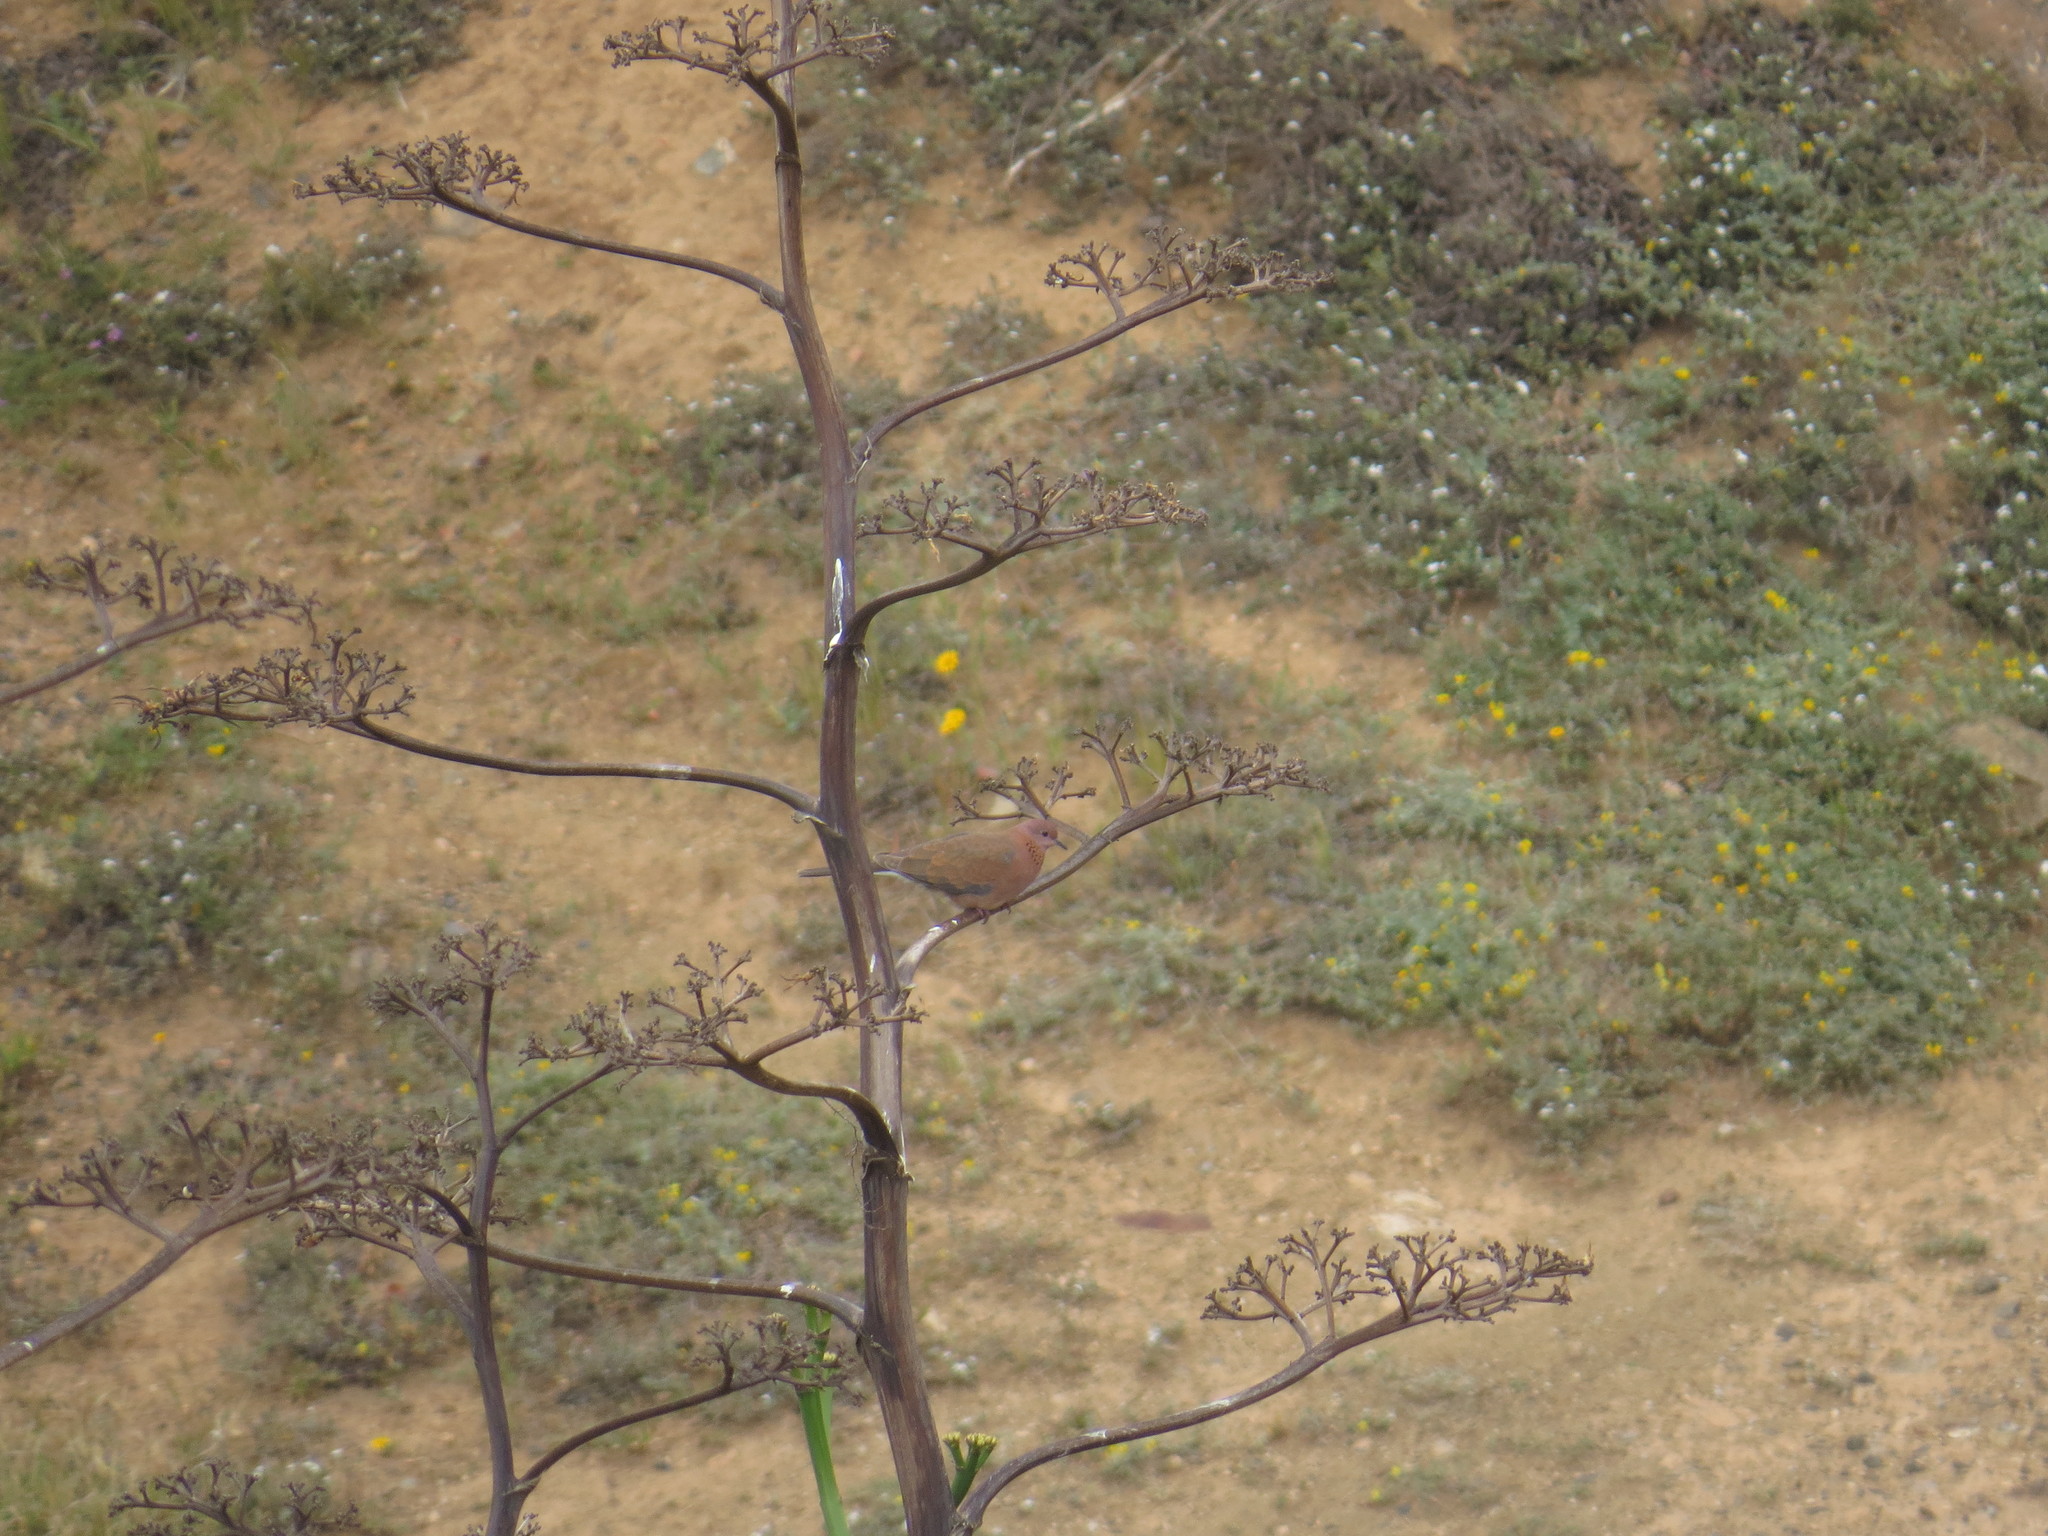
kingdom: Animalia
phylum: Chordata
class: Aves
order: Columbiformes
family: Columbidae
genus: Spilopelia
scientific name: Spilopelia senegalensis
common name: Laughing dove
